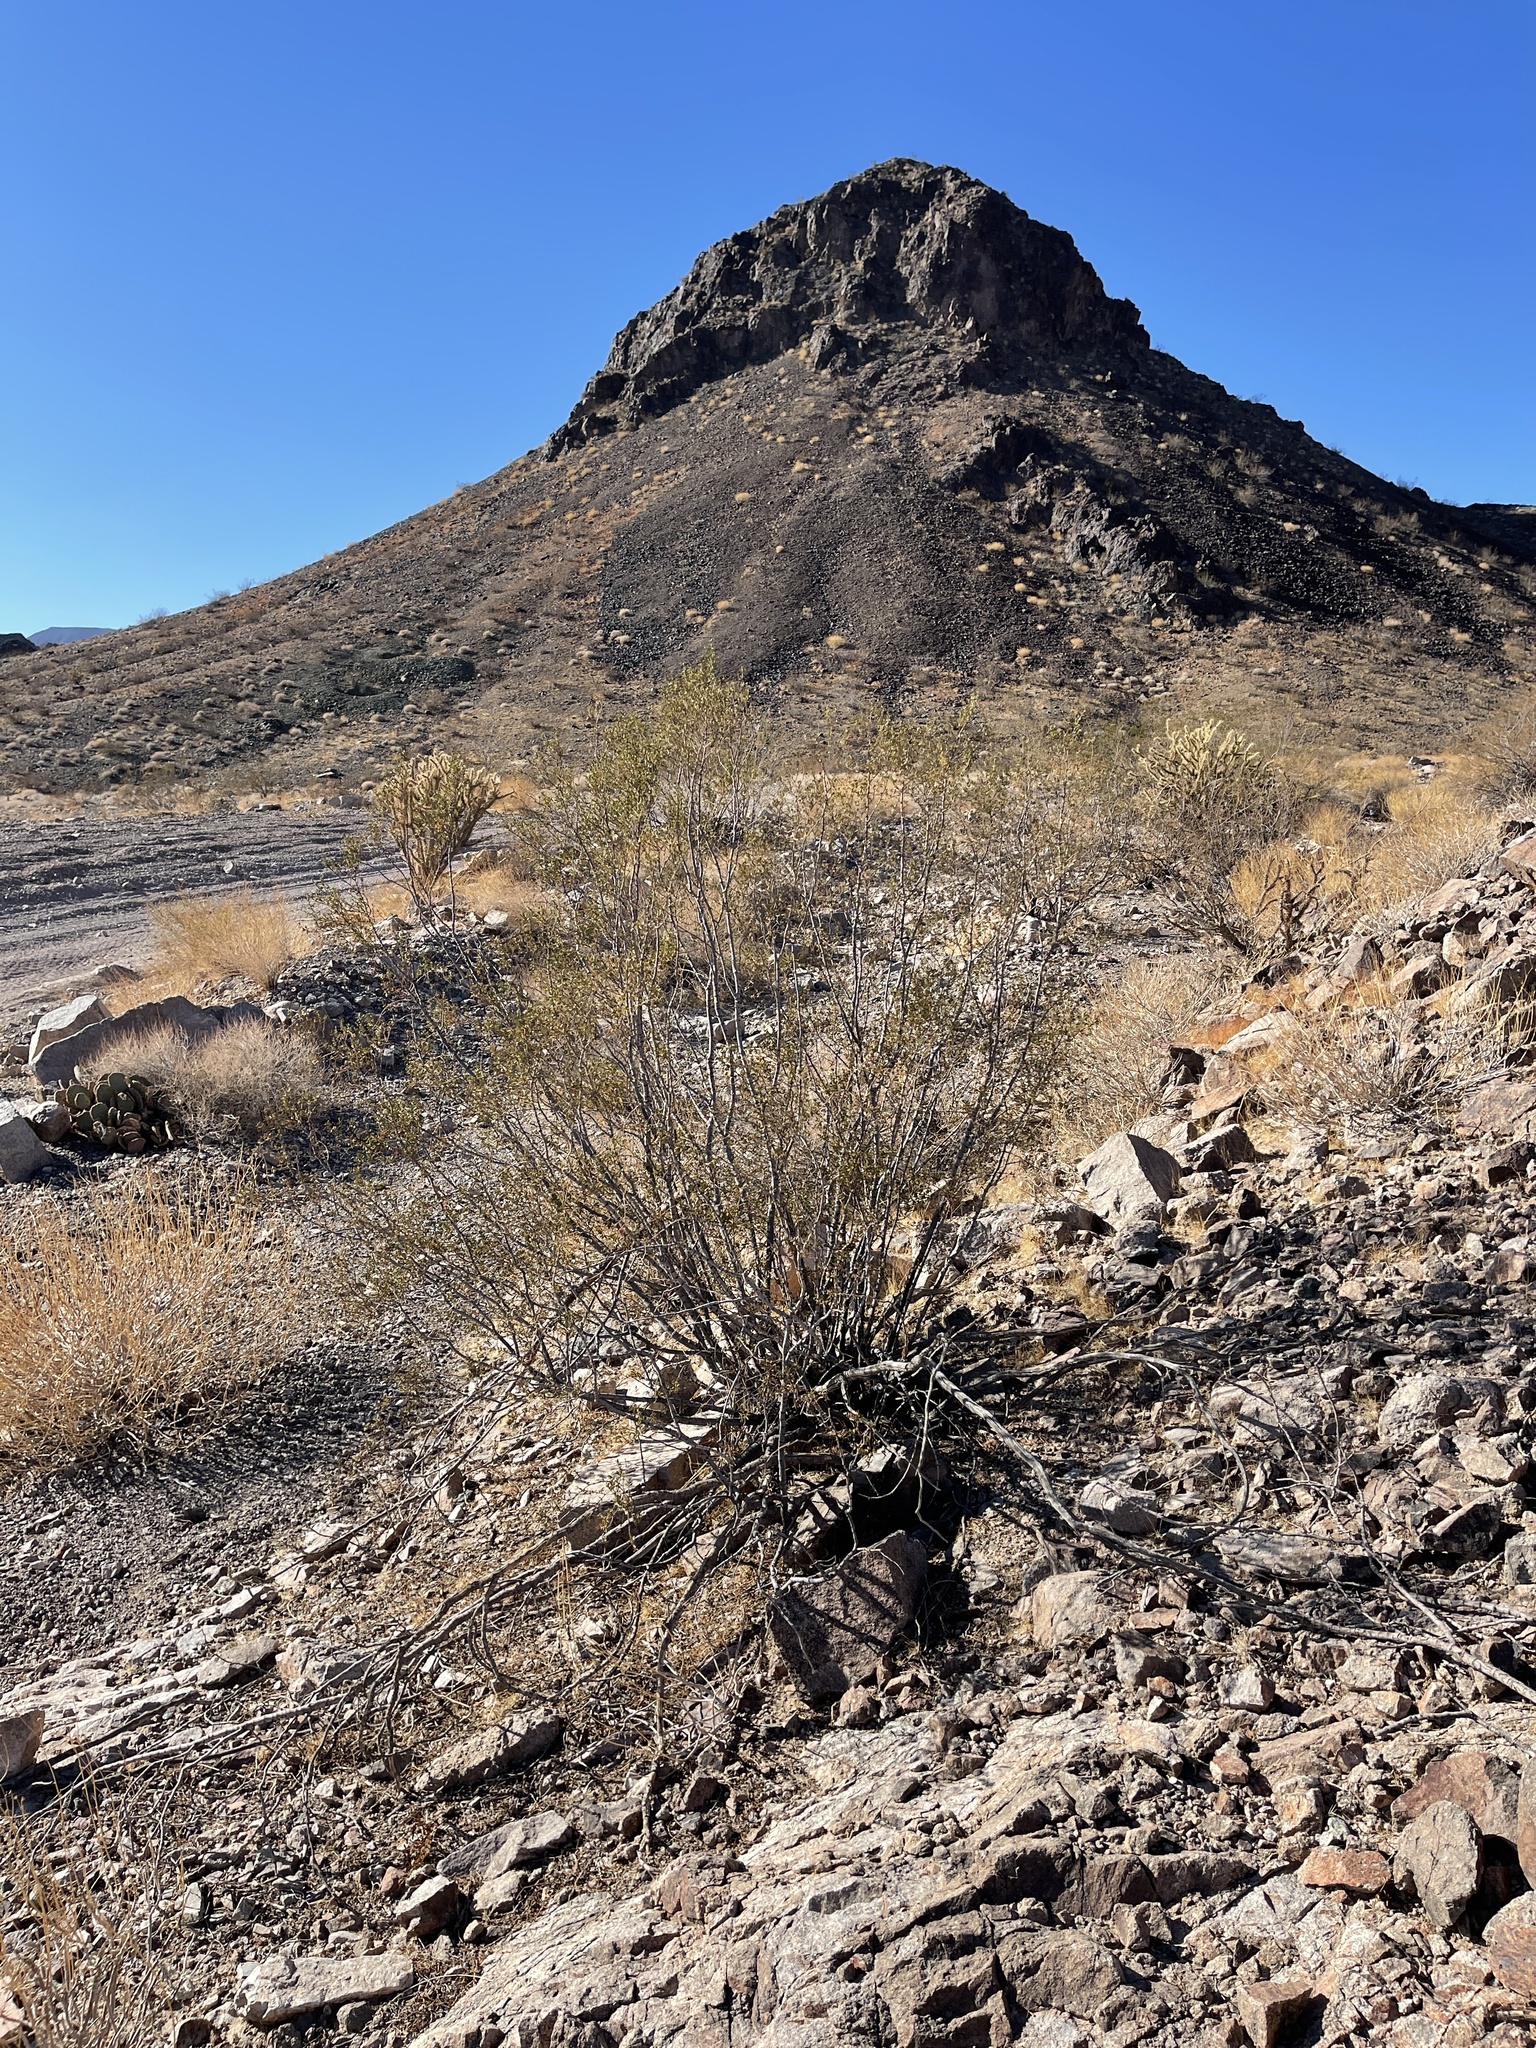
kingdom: Plantae
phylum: Tracheophyta
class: Magnoliopsida
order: Zygophyllales
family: Zygophyllaceae
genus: Larrea
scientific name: Larrea tridentata
